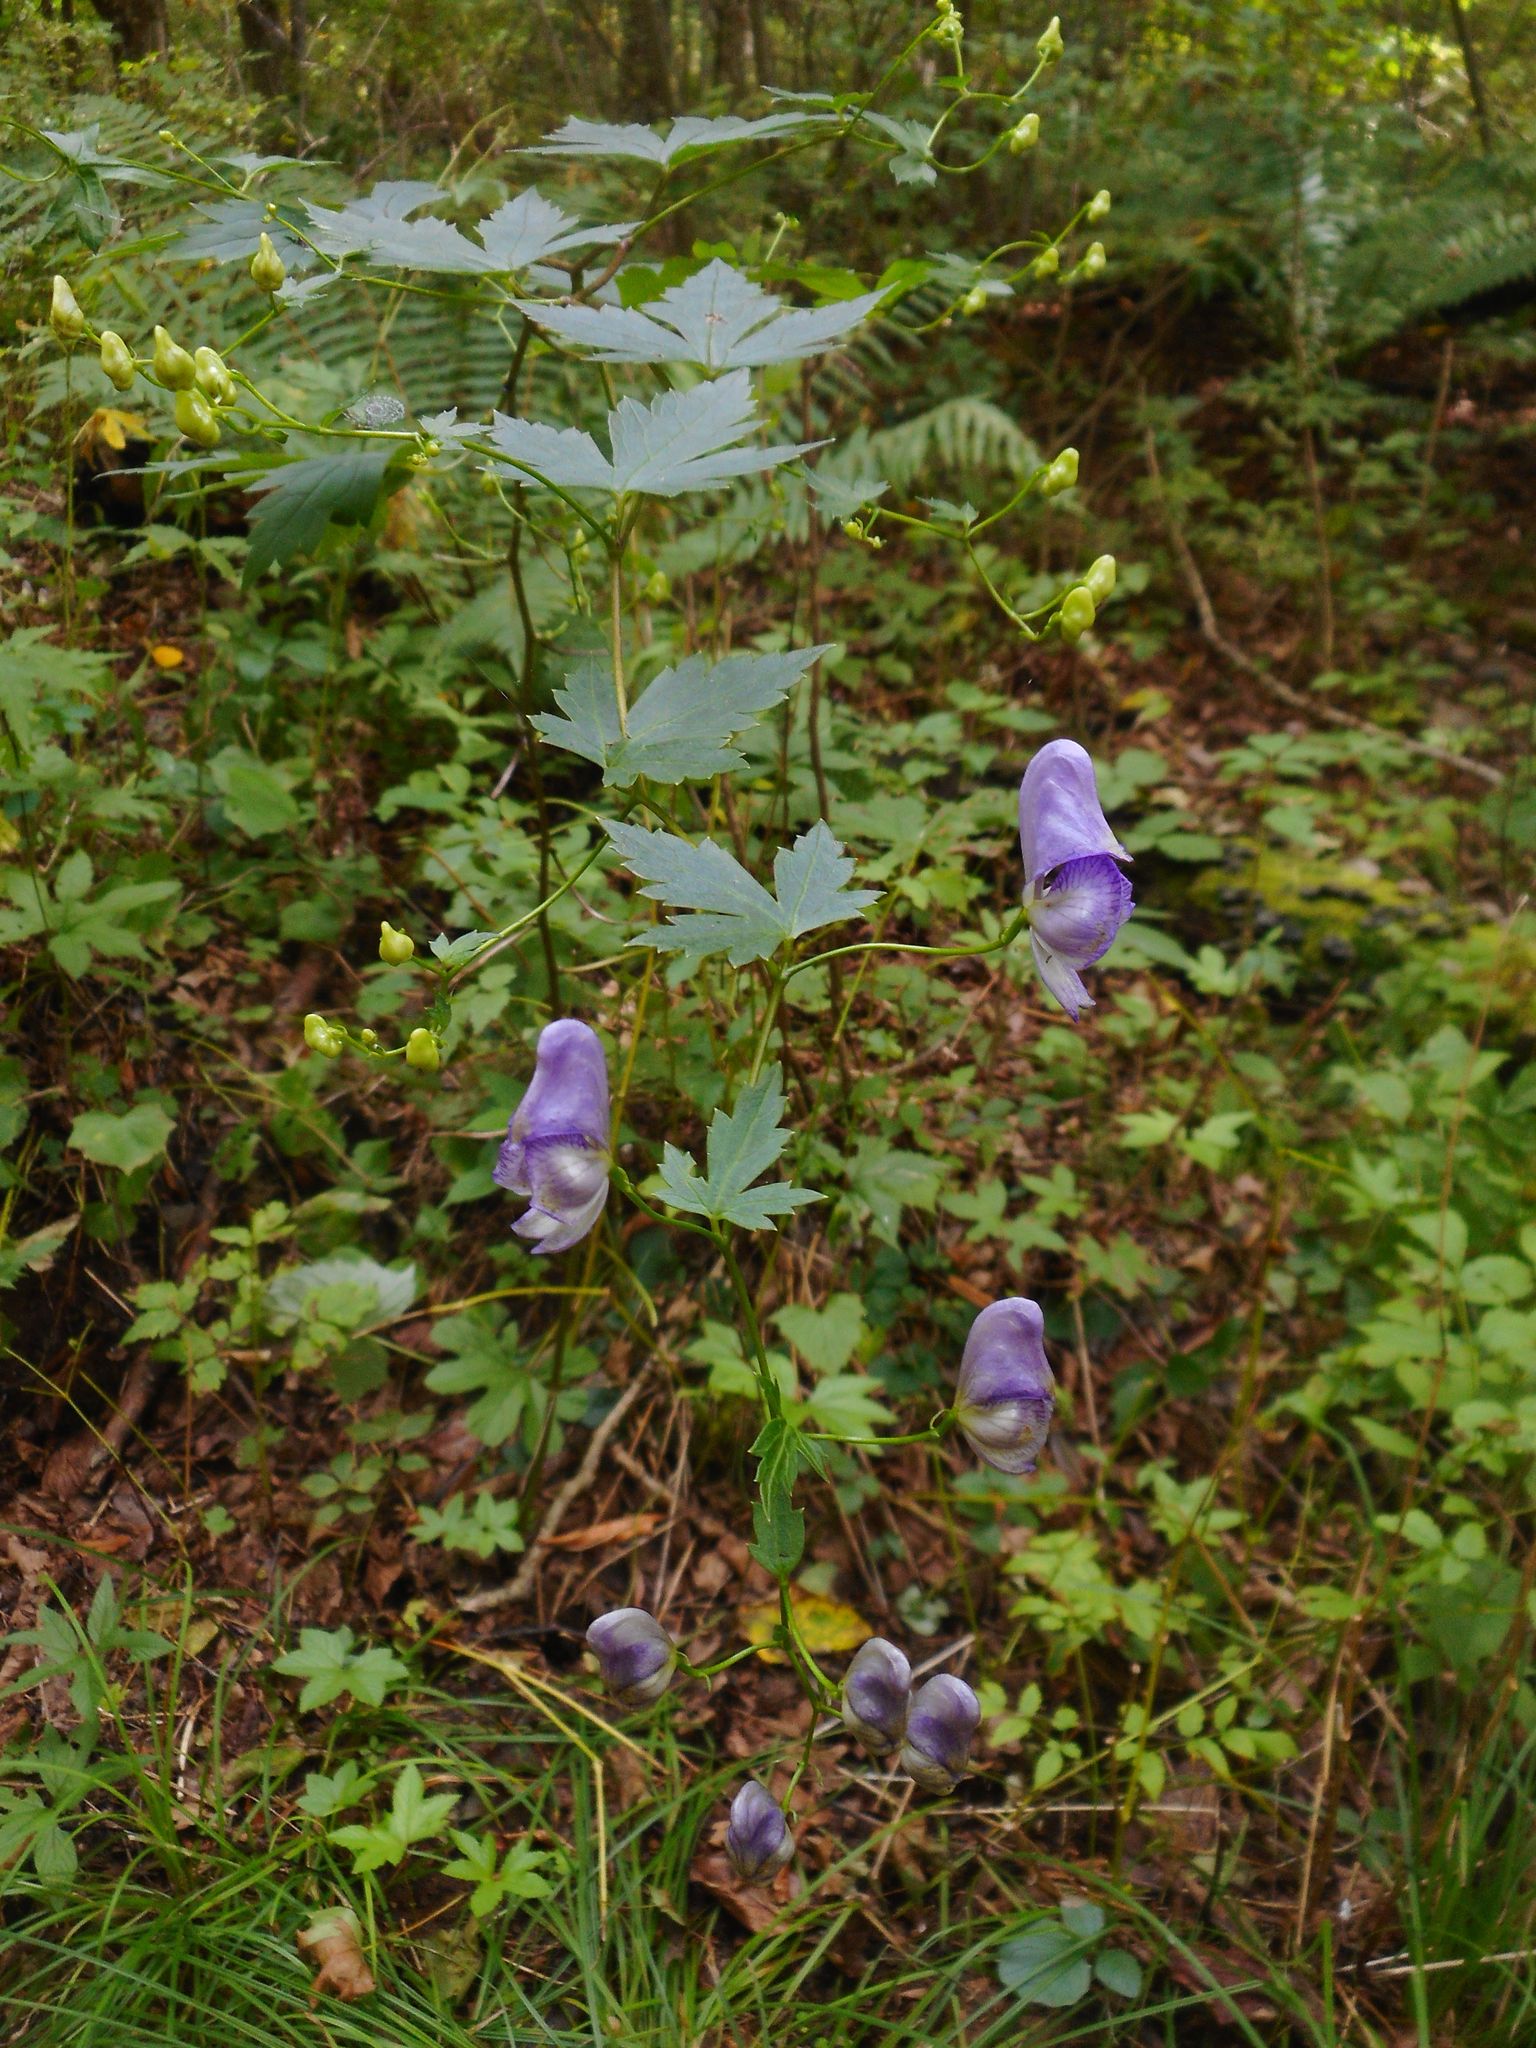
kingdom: Plantae
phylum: Tracheophyta
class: Magnoliopsida
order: Ranunculales
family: Ranunculaceae
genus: Aconitum
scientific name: Aconitum sczukinii
